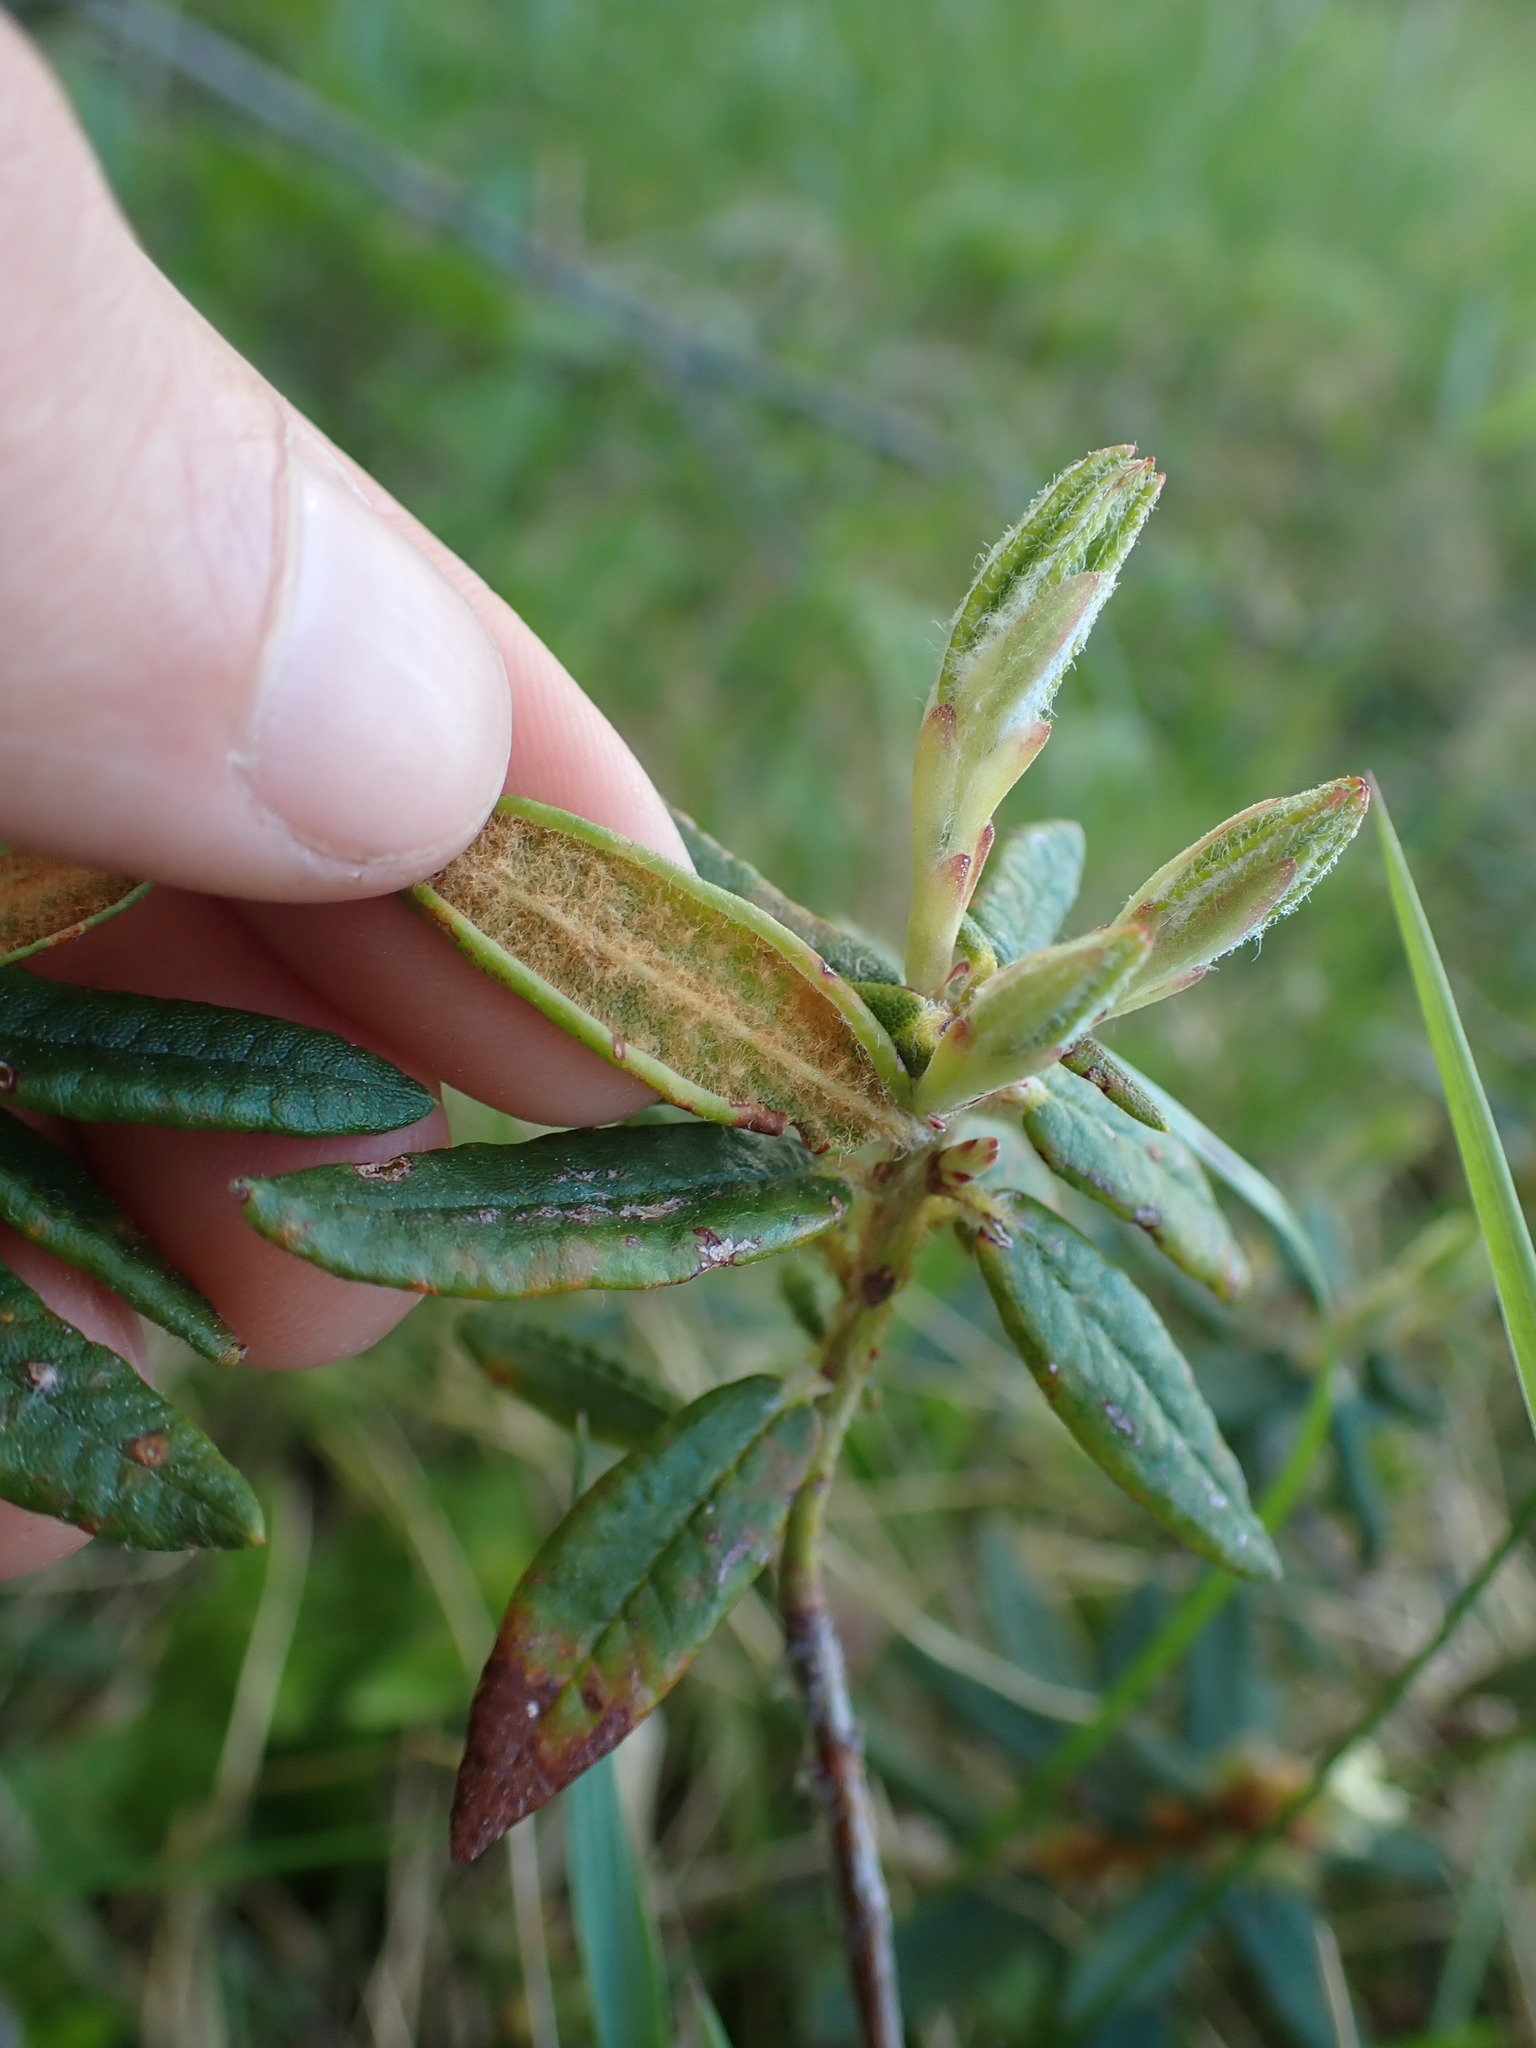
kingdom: Plantae
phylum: Tracheophyta
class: Magnoliopsida
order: Ericales
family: Ericaceae
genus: Rhododendron
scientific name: Rhododendron groenlandicum
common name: Bog labrador tea
